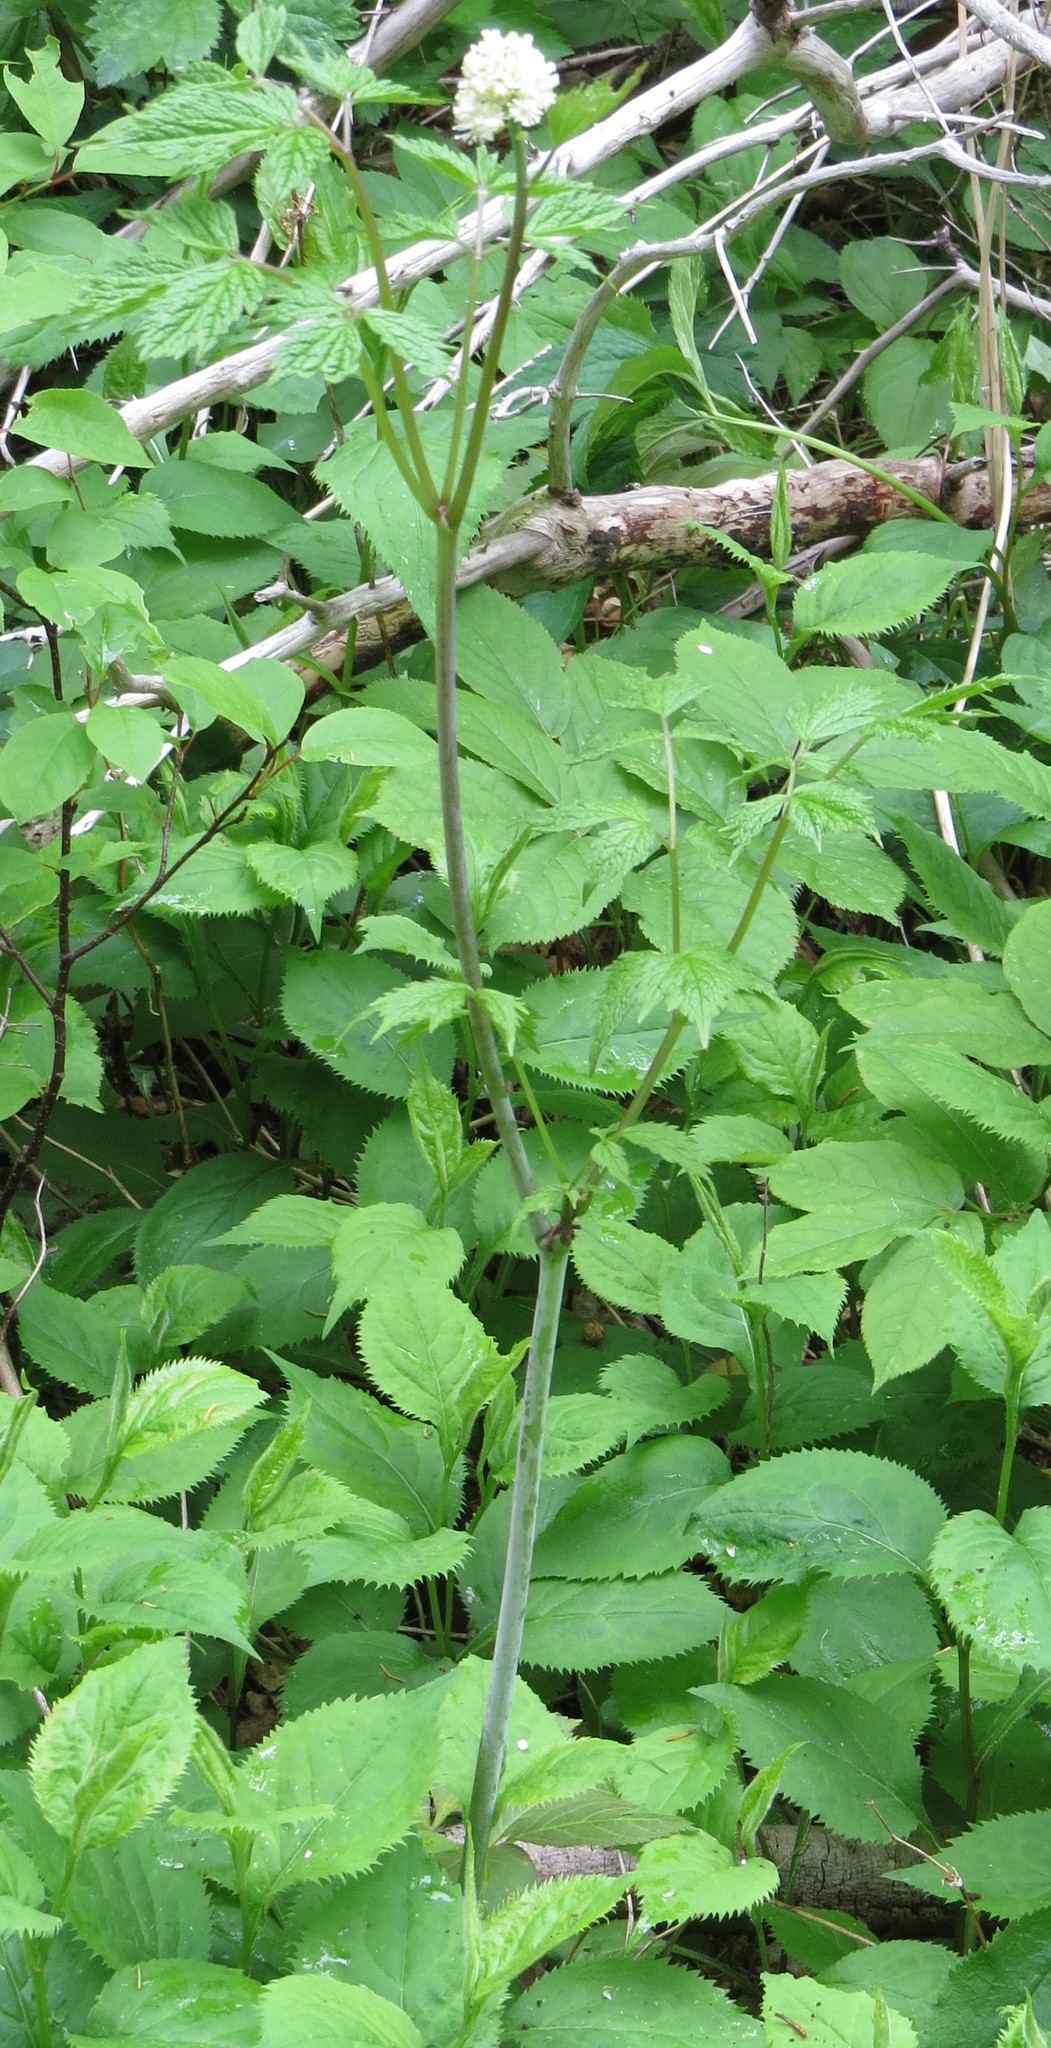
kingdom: Plantae
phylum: Tracheophyta
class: Magnoliopsida
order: Ranunculales
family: Ranunculaceae
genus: Actaea
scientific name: Actaea rubra
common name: Red baneberry
